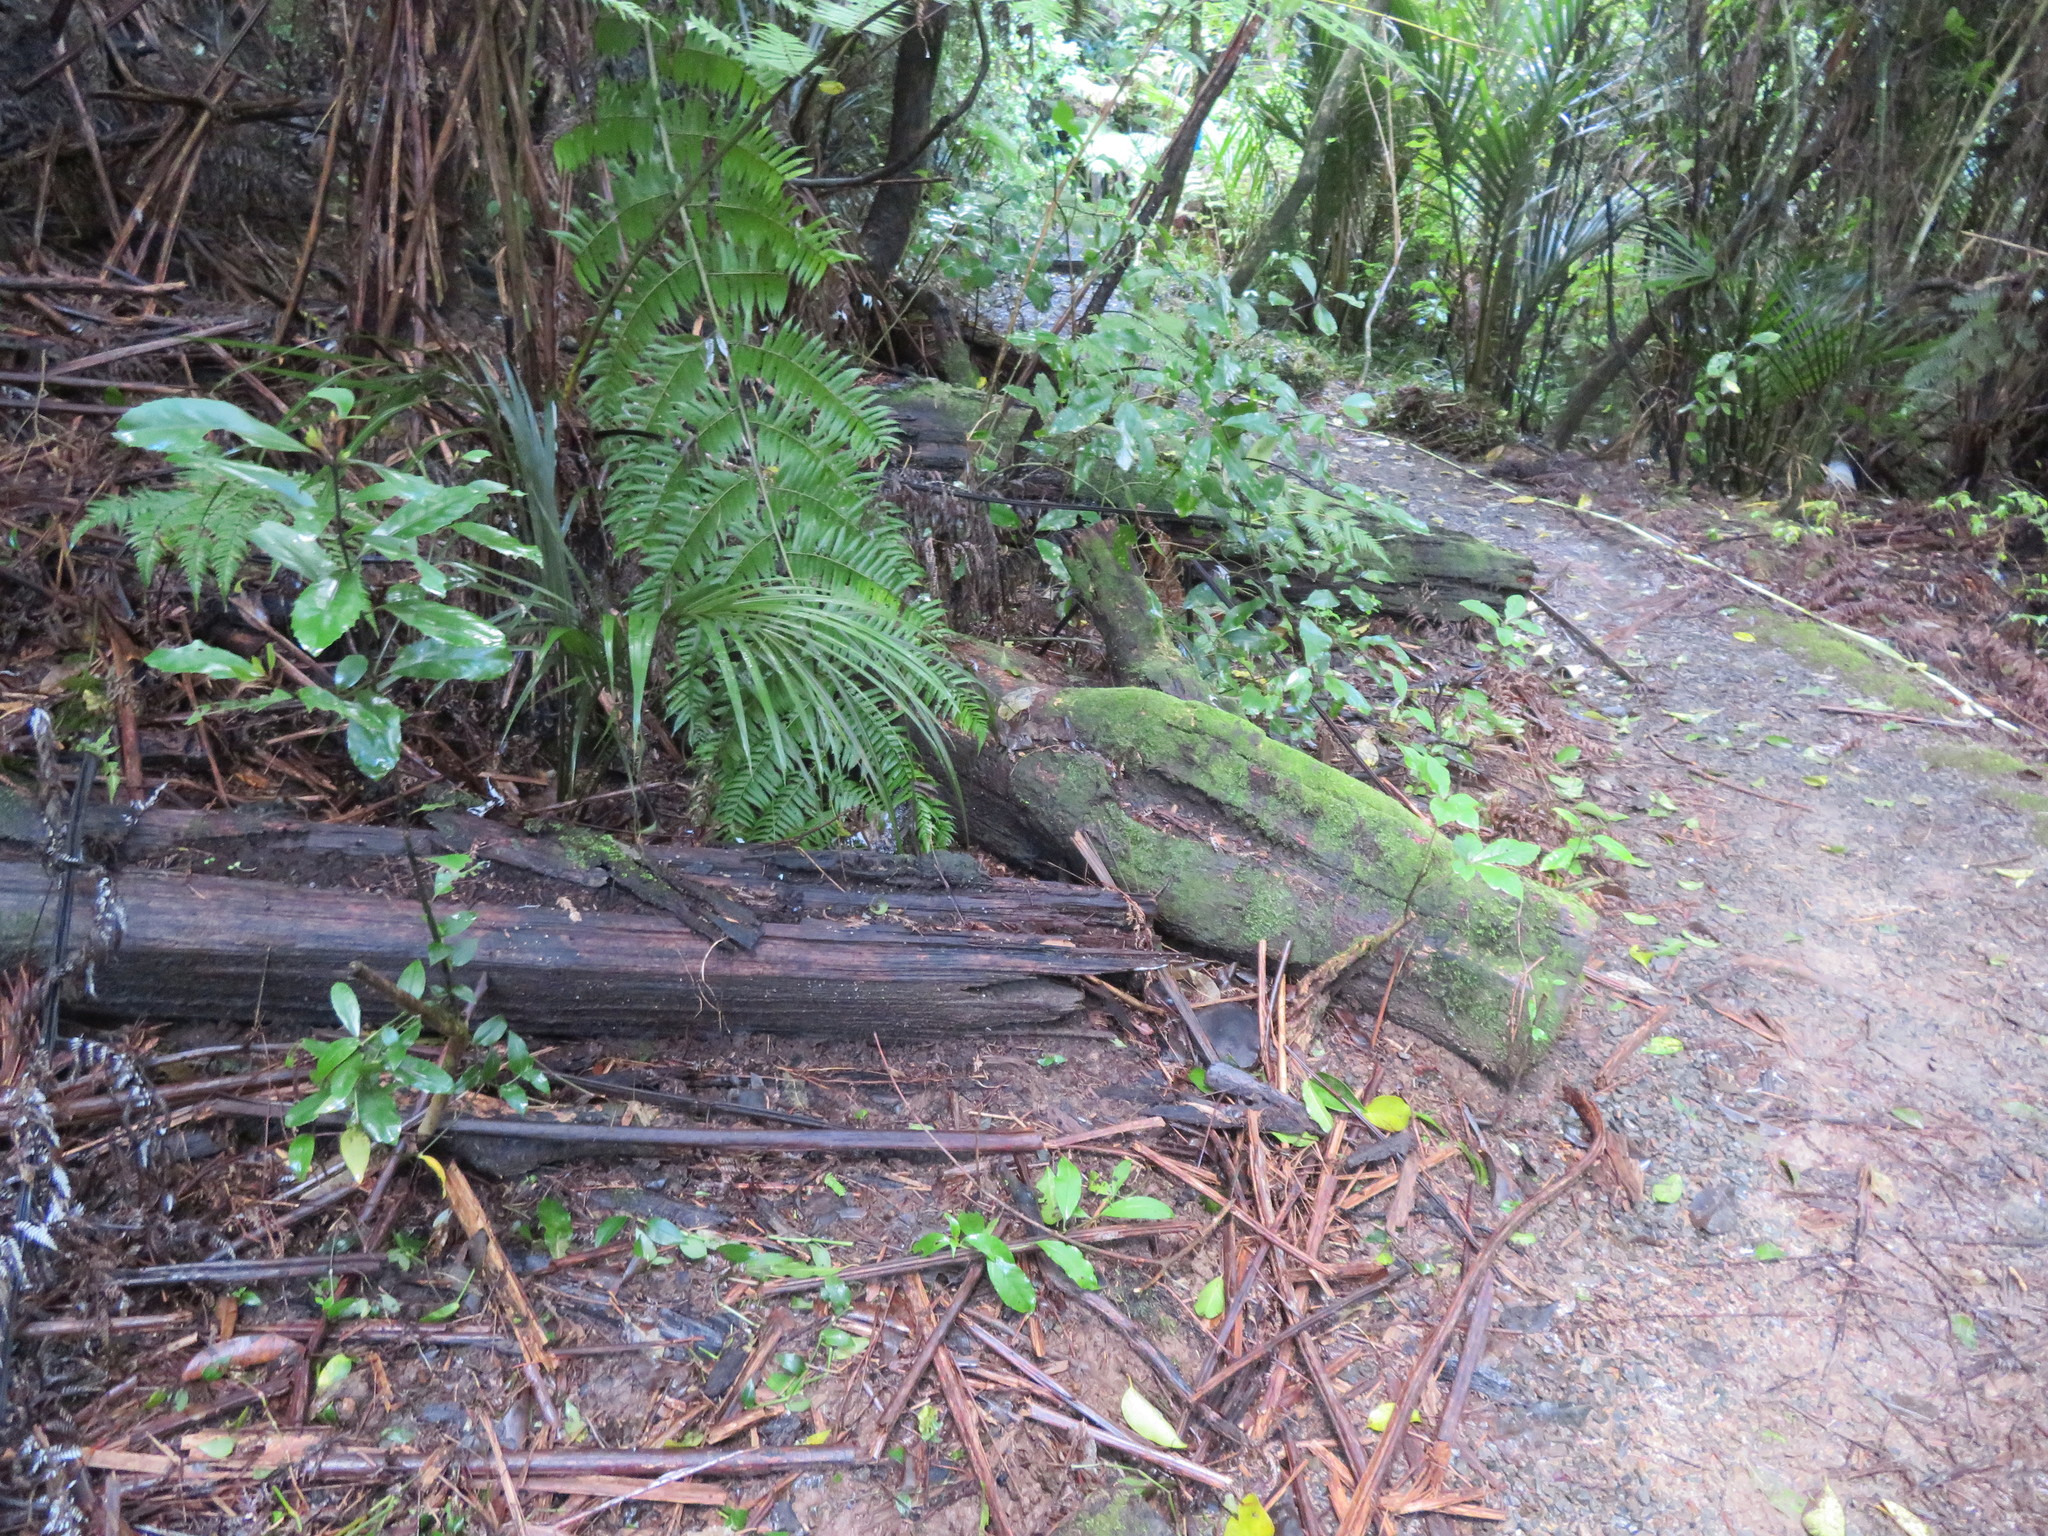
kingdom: Plantae
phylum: Tracheophyta
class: Magnoliopsida
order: Laurales
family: Monimiaceae
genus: Hedycarya
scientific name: Hedycarya arborea
